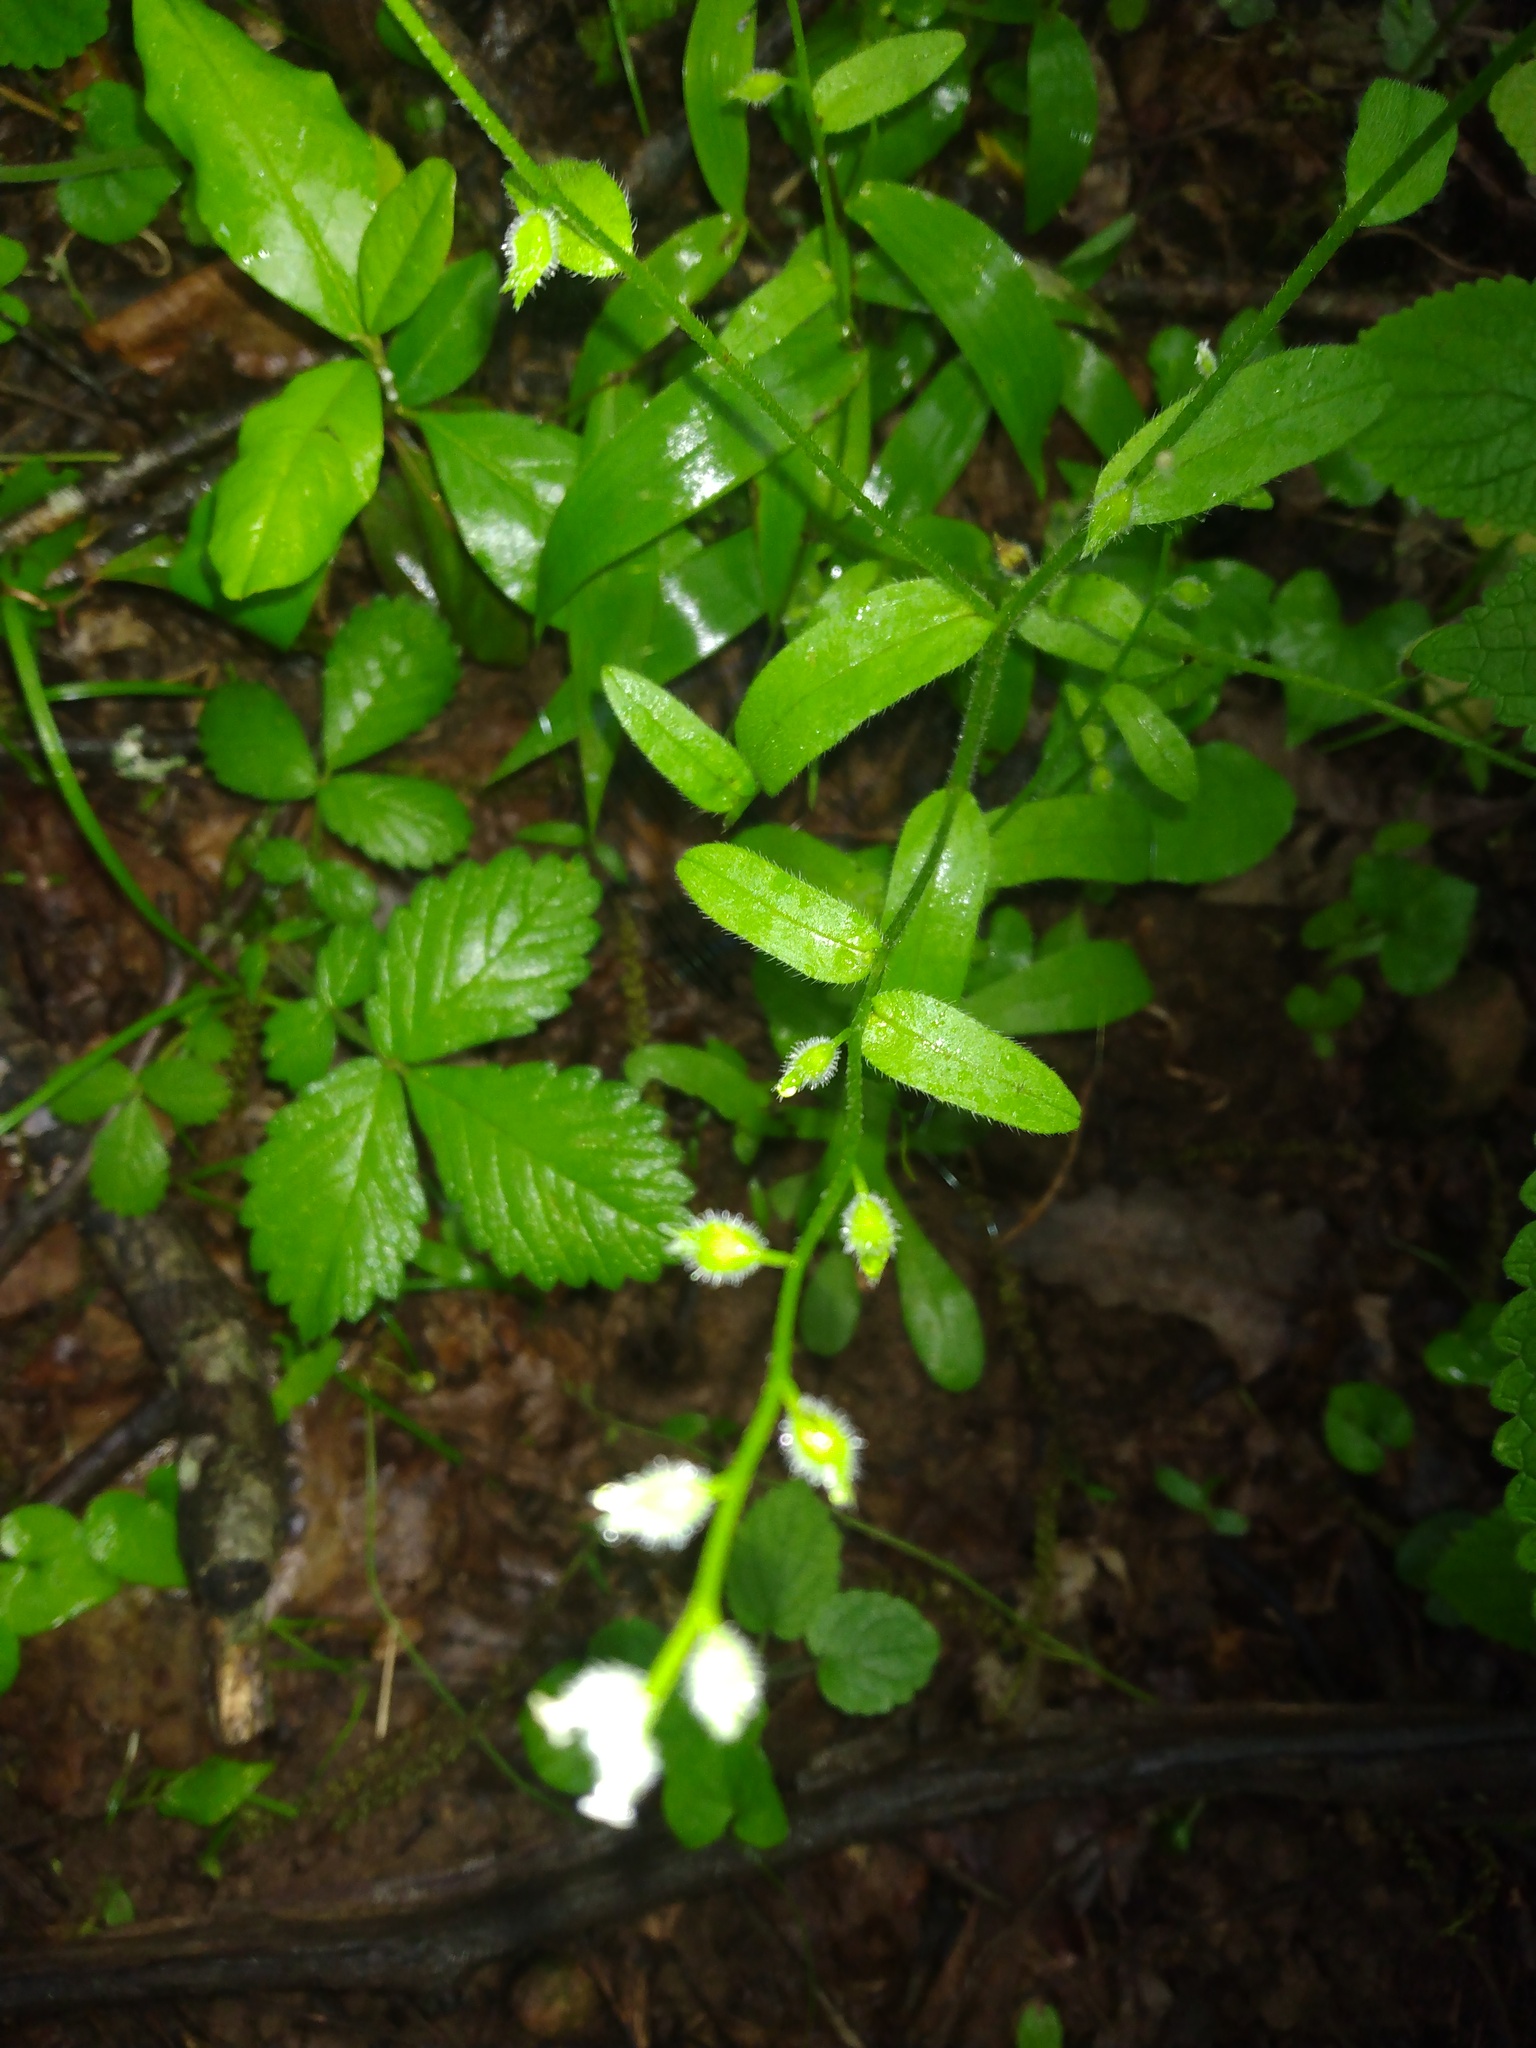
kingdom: Plantae
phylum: Tracheophyta
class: Magnoliopsida
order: Boraginales
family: Boraginaceae
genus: Myosotis
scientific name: Myosotis macrosperma
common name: Large-seed forget-me-not
